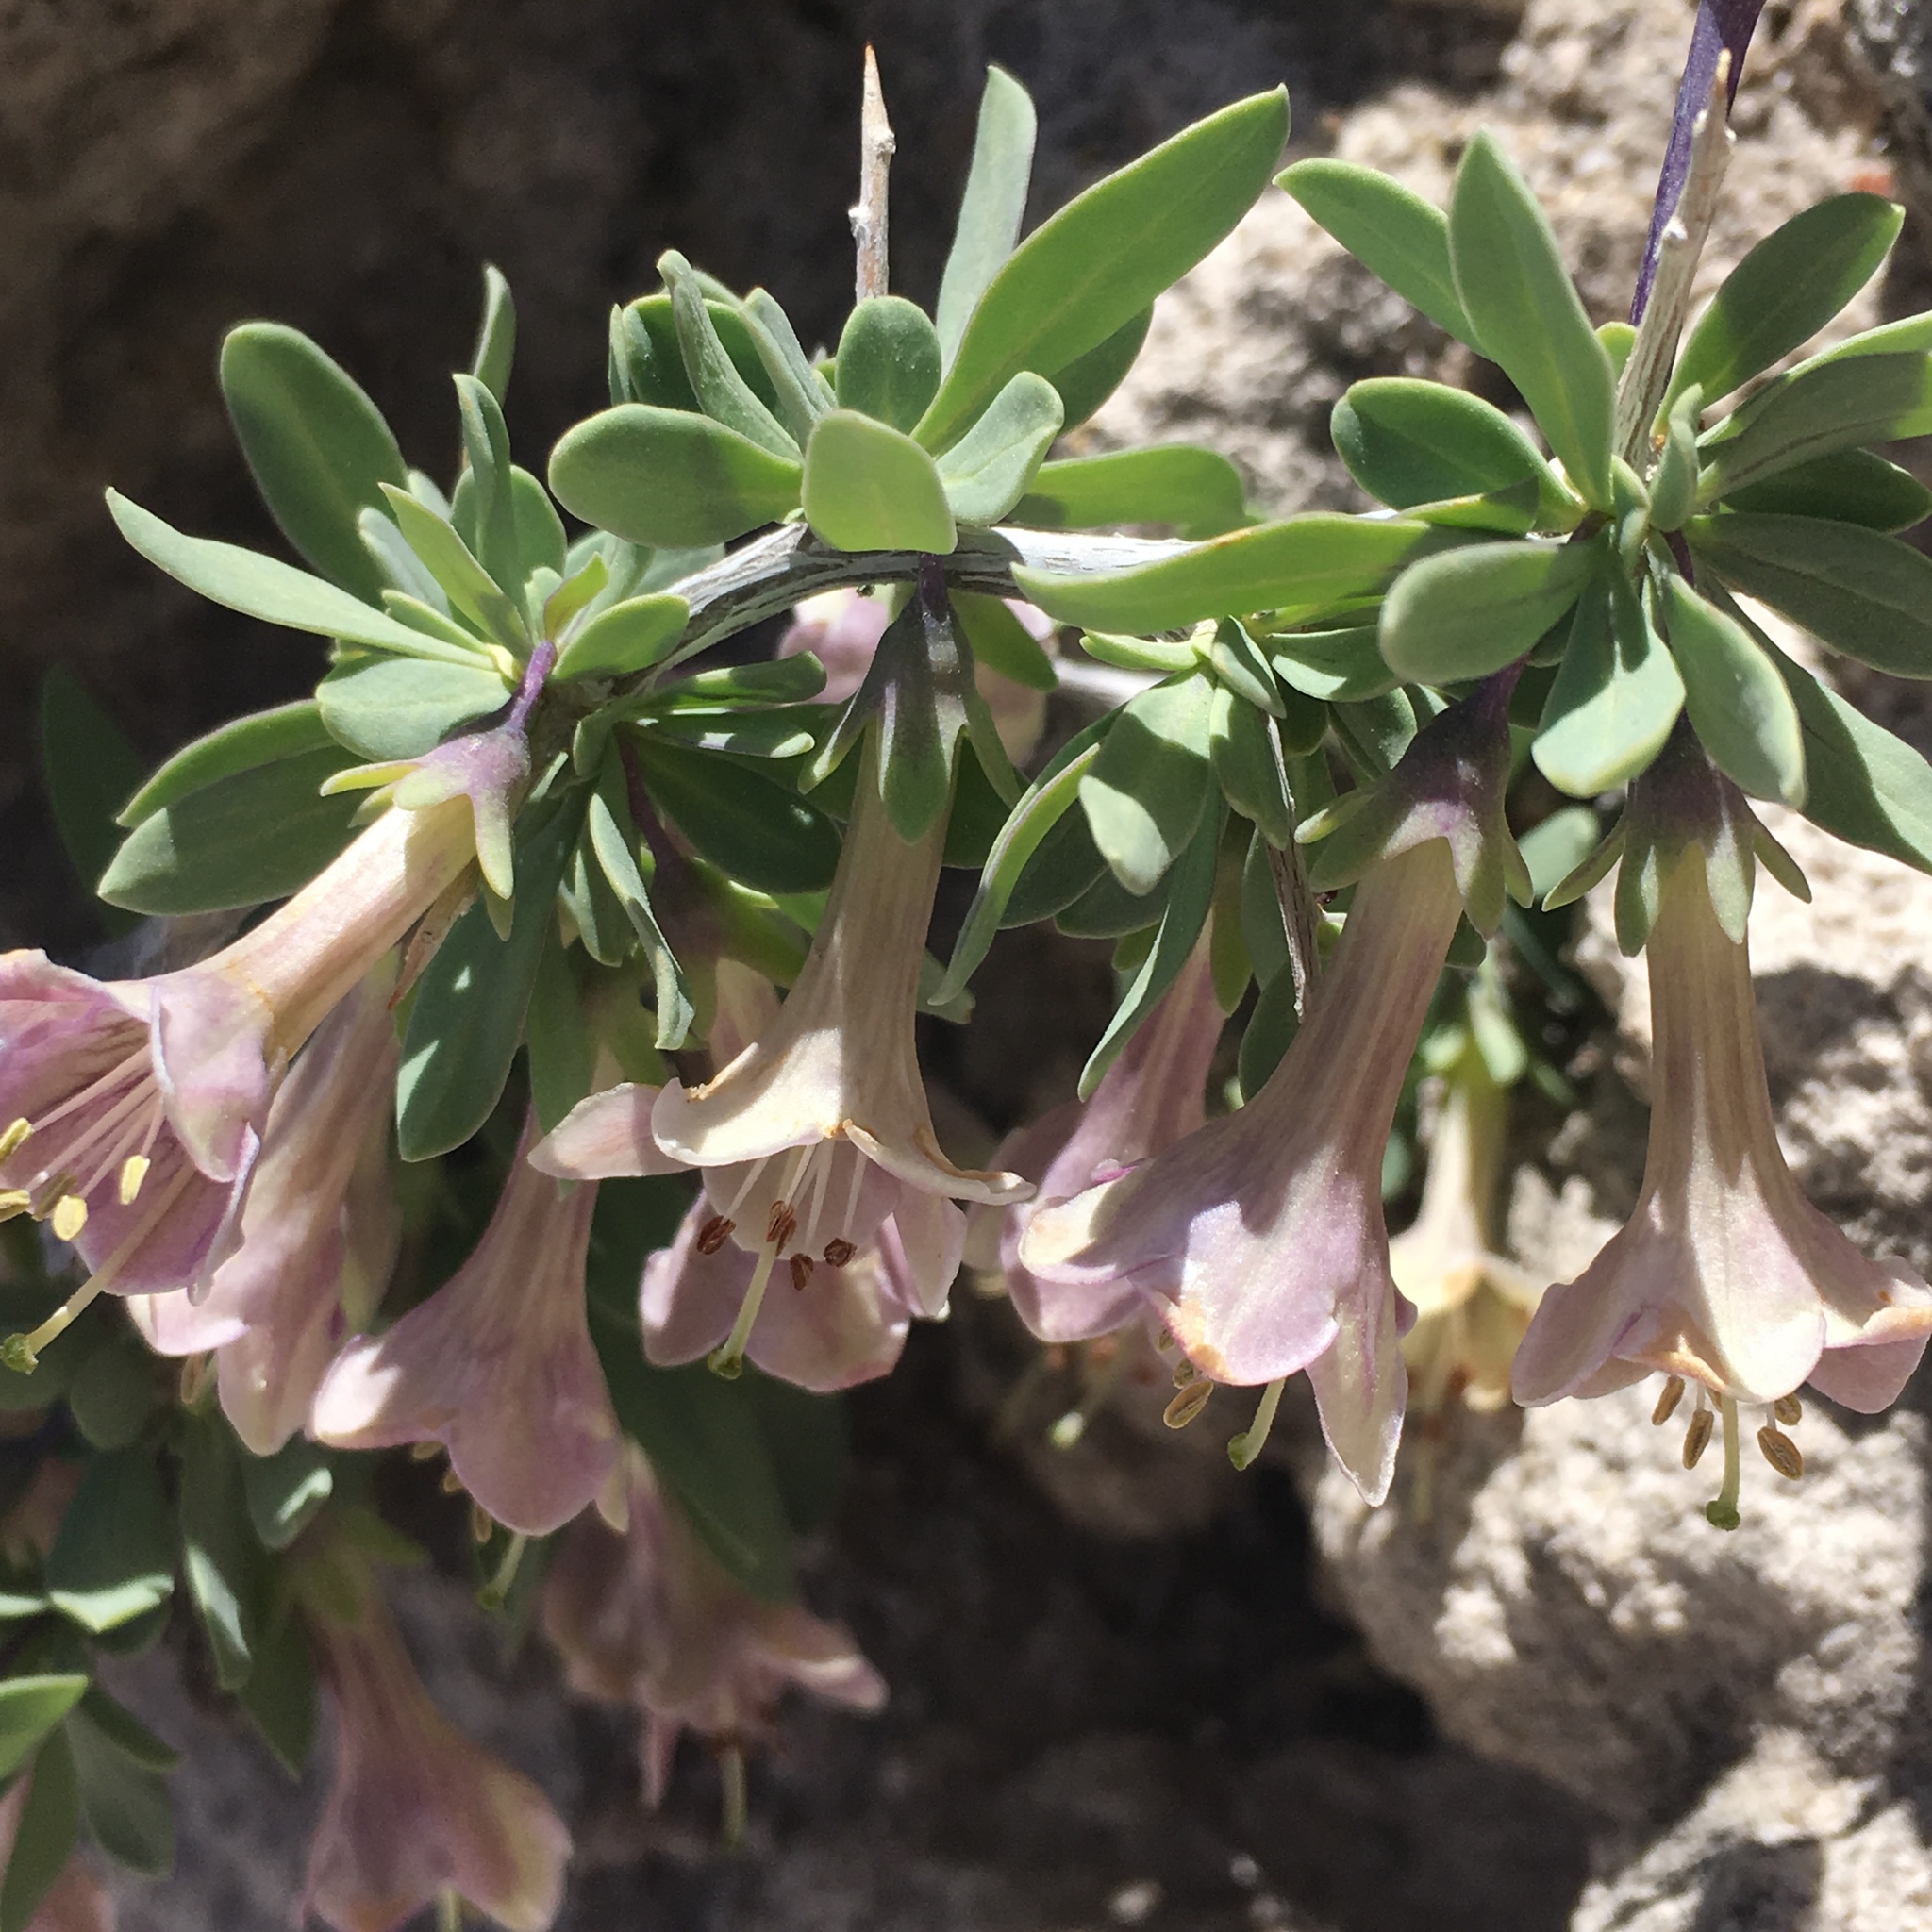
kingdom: Plantae
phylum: Tracheophyta
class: Magnoliopsida
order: Solanales
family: Solanaceae
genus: Lycium
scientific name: Lycium pallidum
